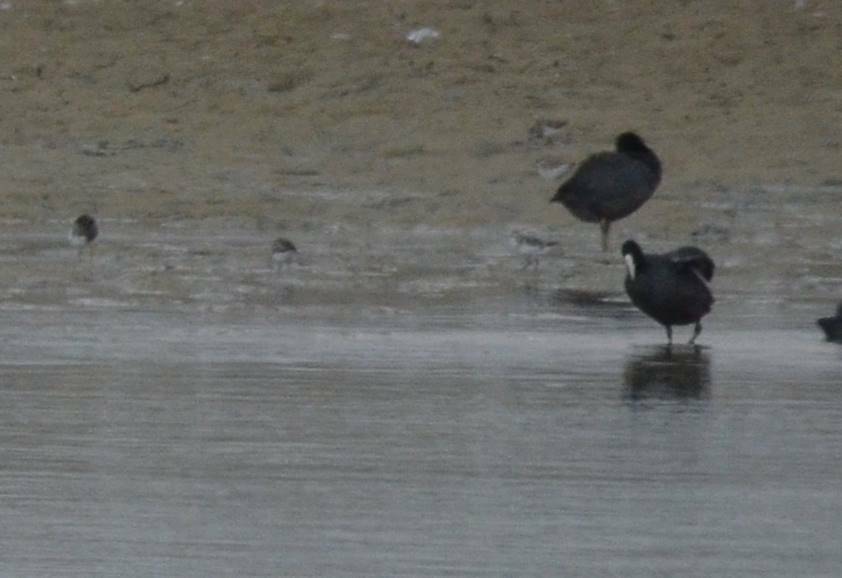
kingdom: Animalia
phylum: Chordata
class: Aves
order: Gruiformes
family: Rallidae
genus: Fulica
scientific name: Fulica atra
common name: Eurasian coot
